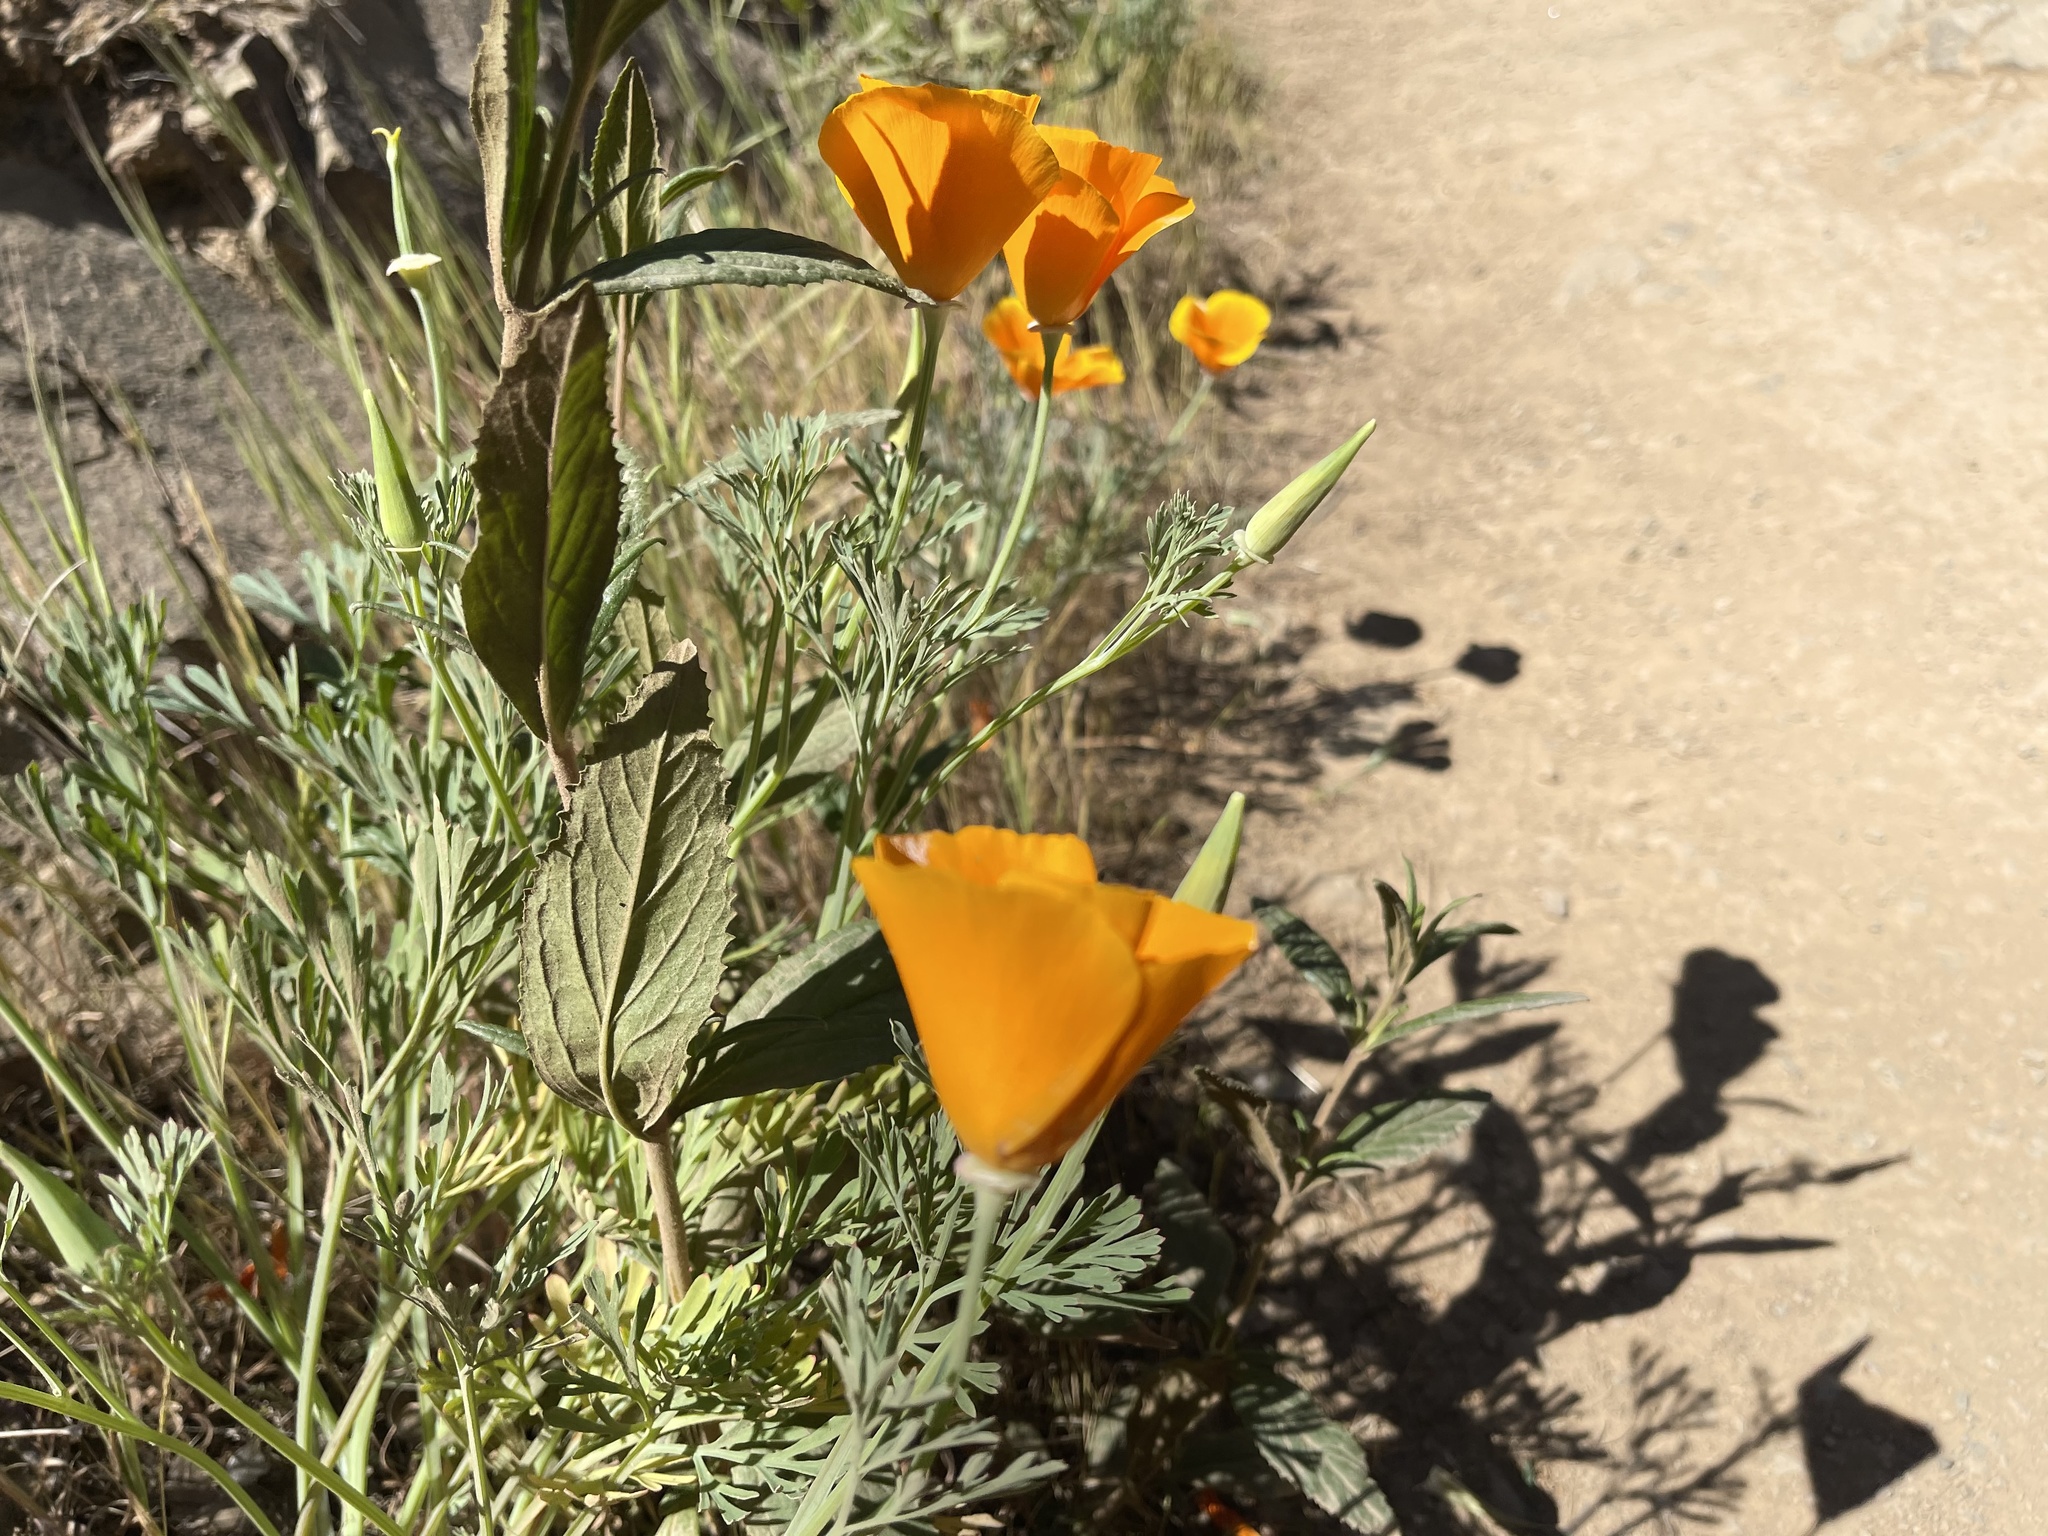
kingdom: Plantae
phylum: Tracheophyta
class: Magnoliopsida
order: Ranunculales
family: Papaveraceae
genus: Eschscholzia
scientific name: Eschscholzia californica
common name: California poppy
